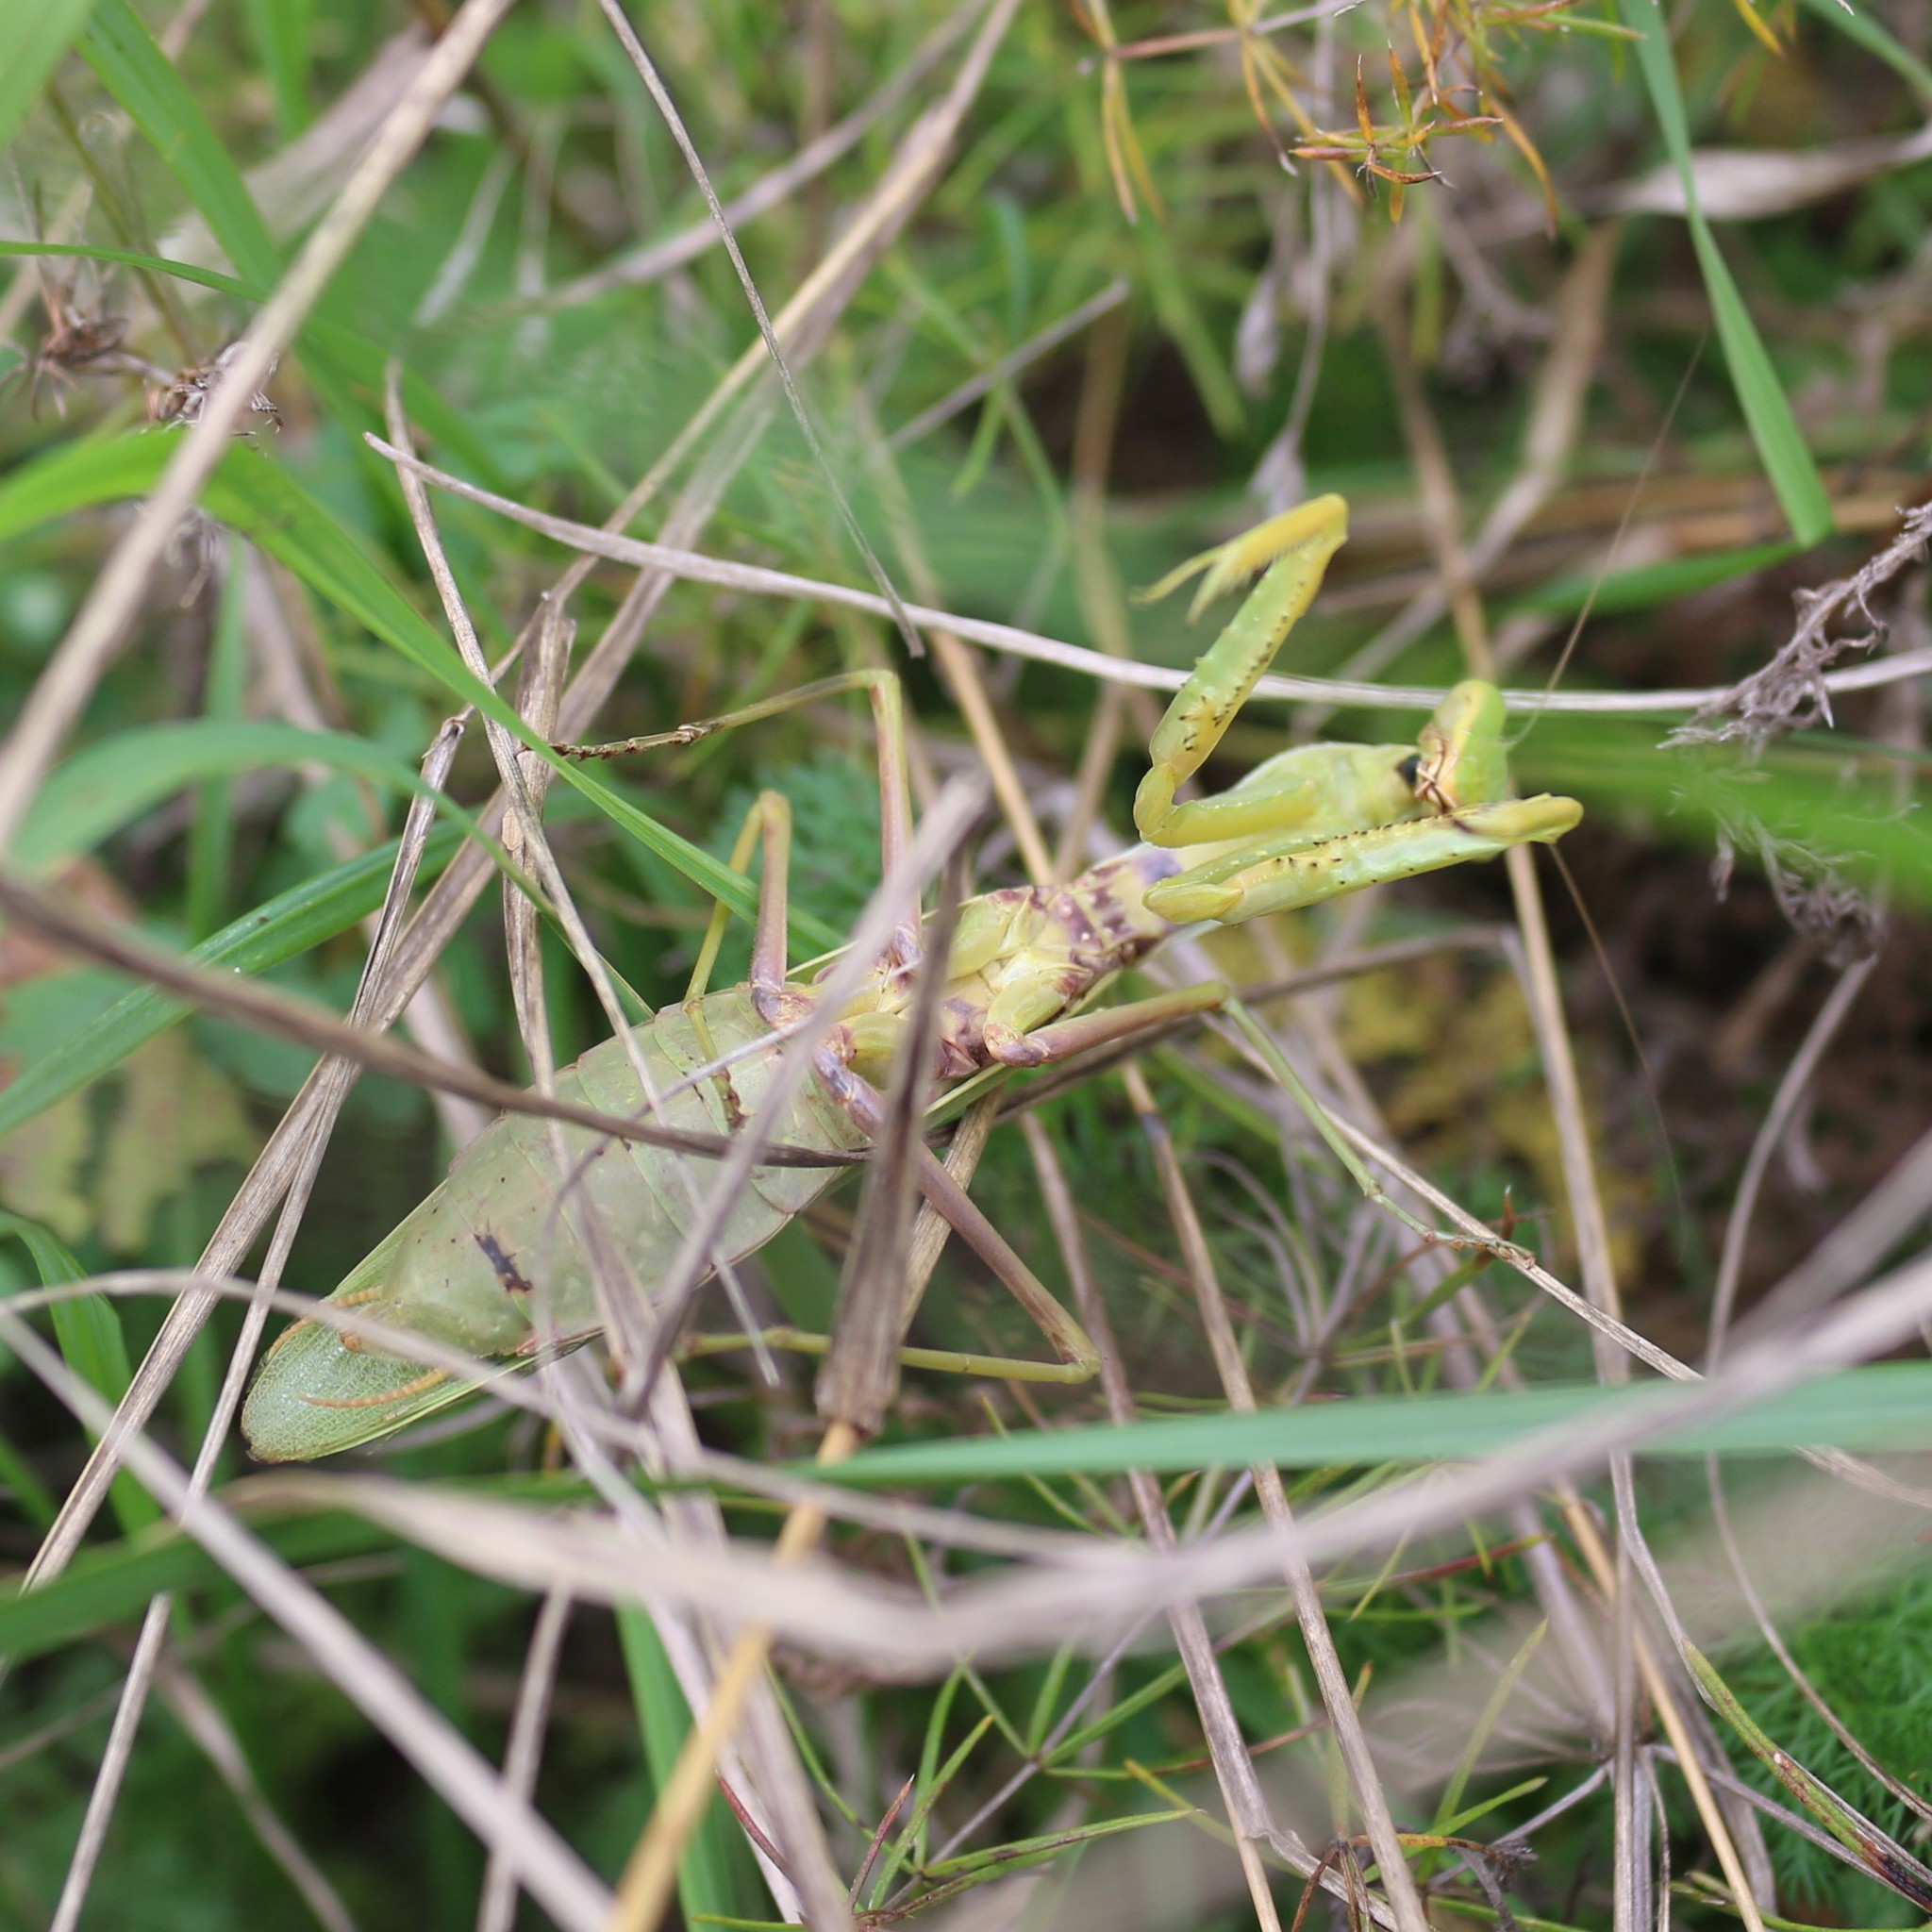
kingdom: Animalia
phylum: Arthropoda
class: Insecta
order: Mantodea
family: Mantidae
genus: Hierodula
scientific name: Hierodula transcaucasica
